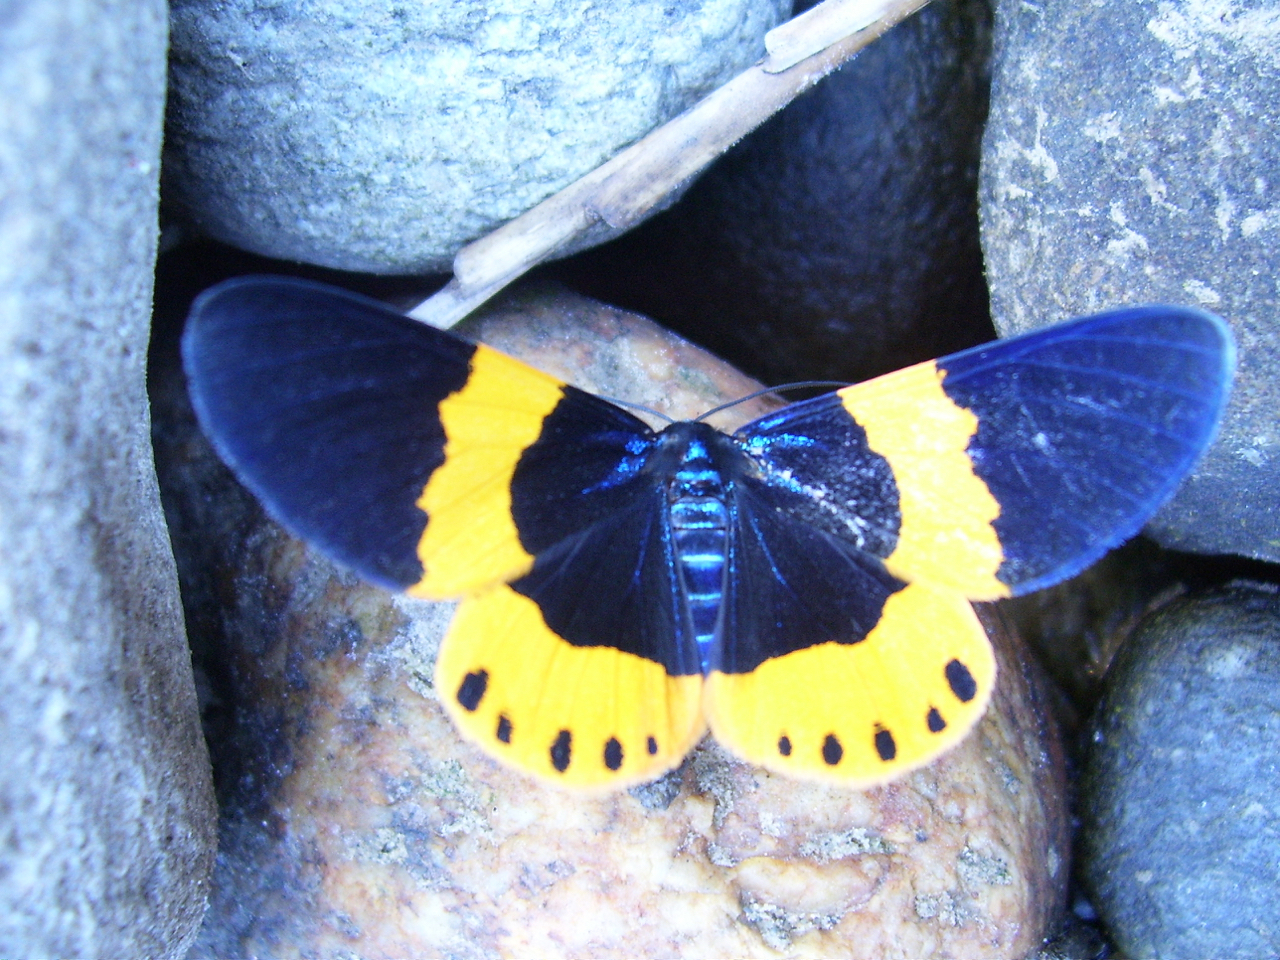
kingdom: Animalia
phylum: Arthropoda
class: Insecta
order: Lepidoptera
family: Geometridae
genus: Milionia
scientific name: Milionia basalis
